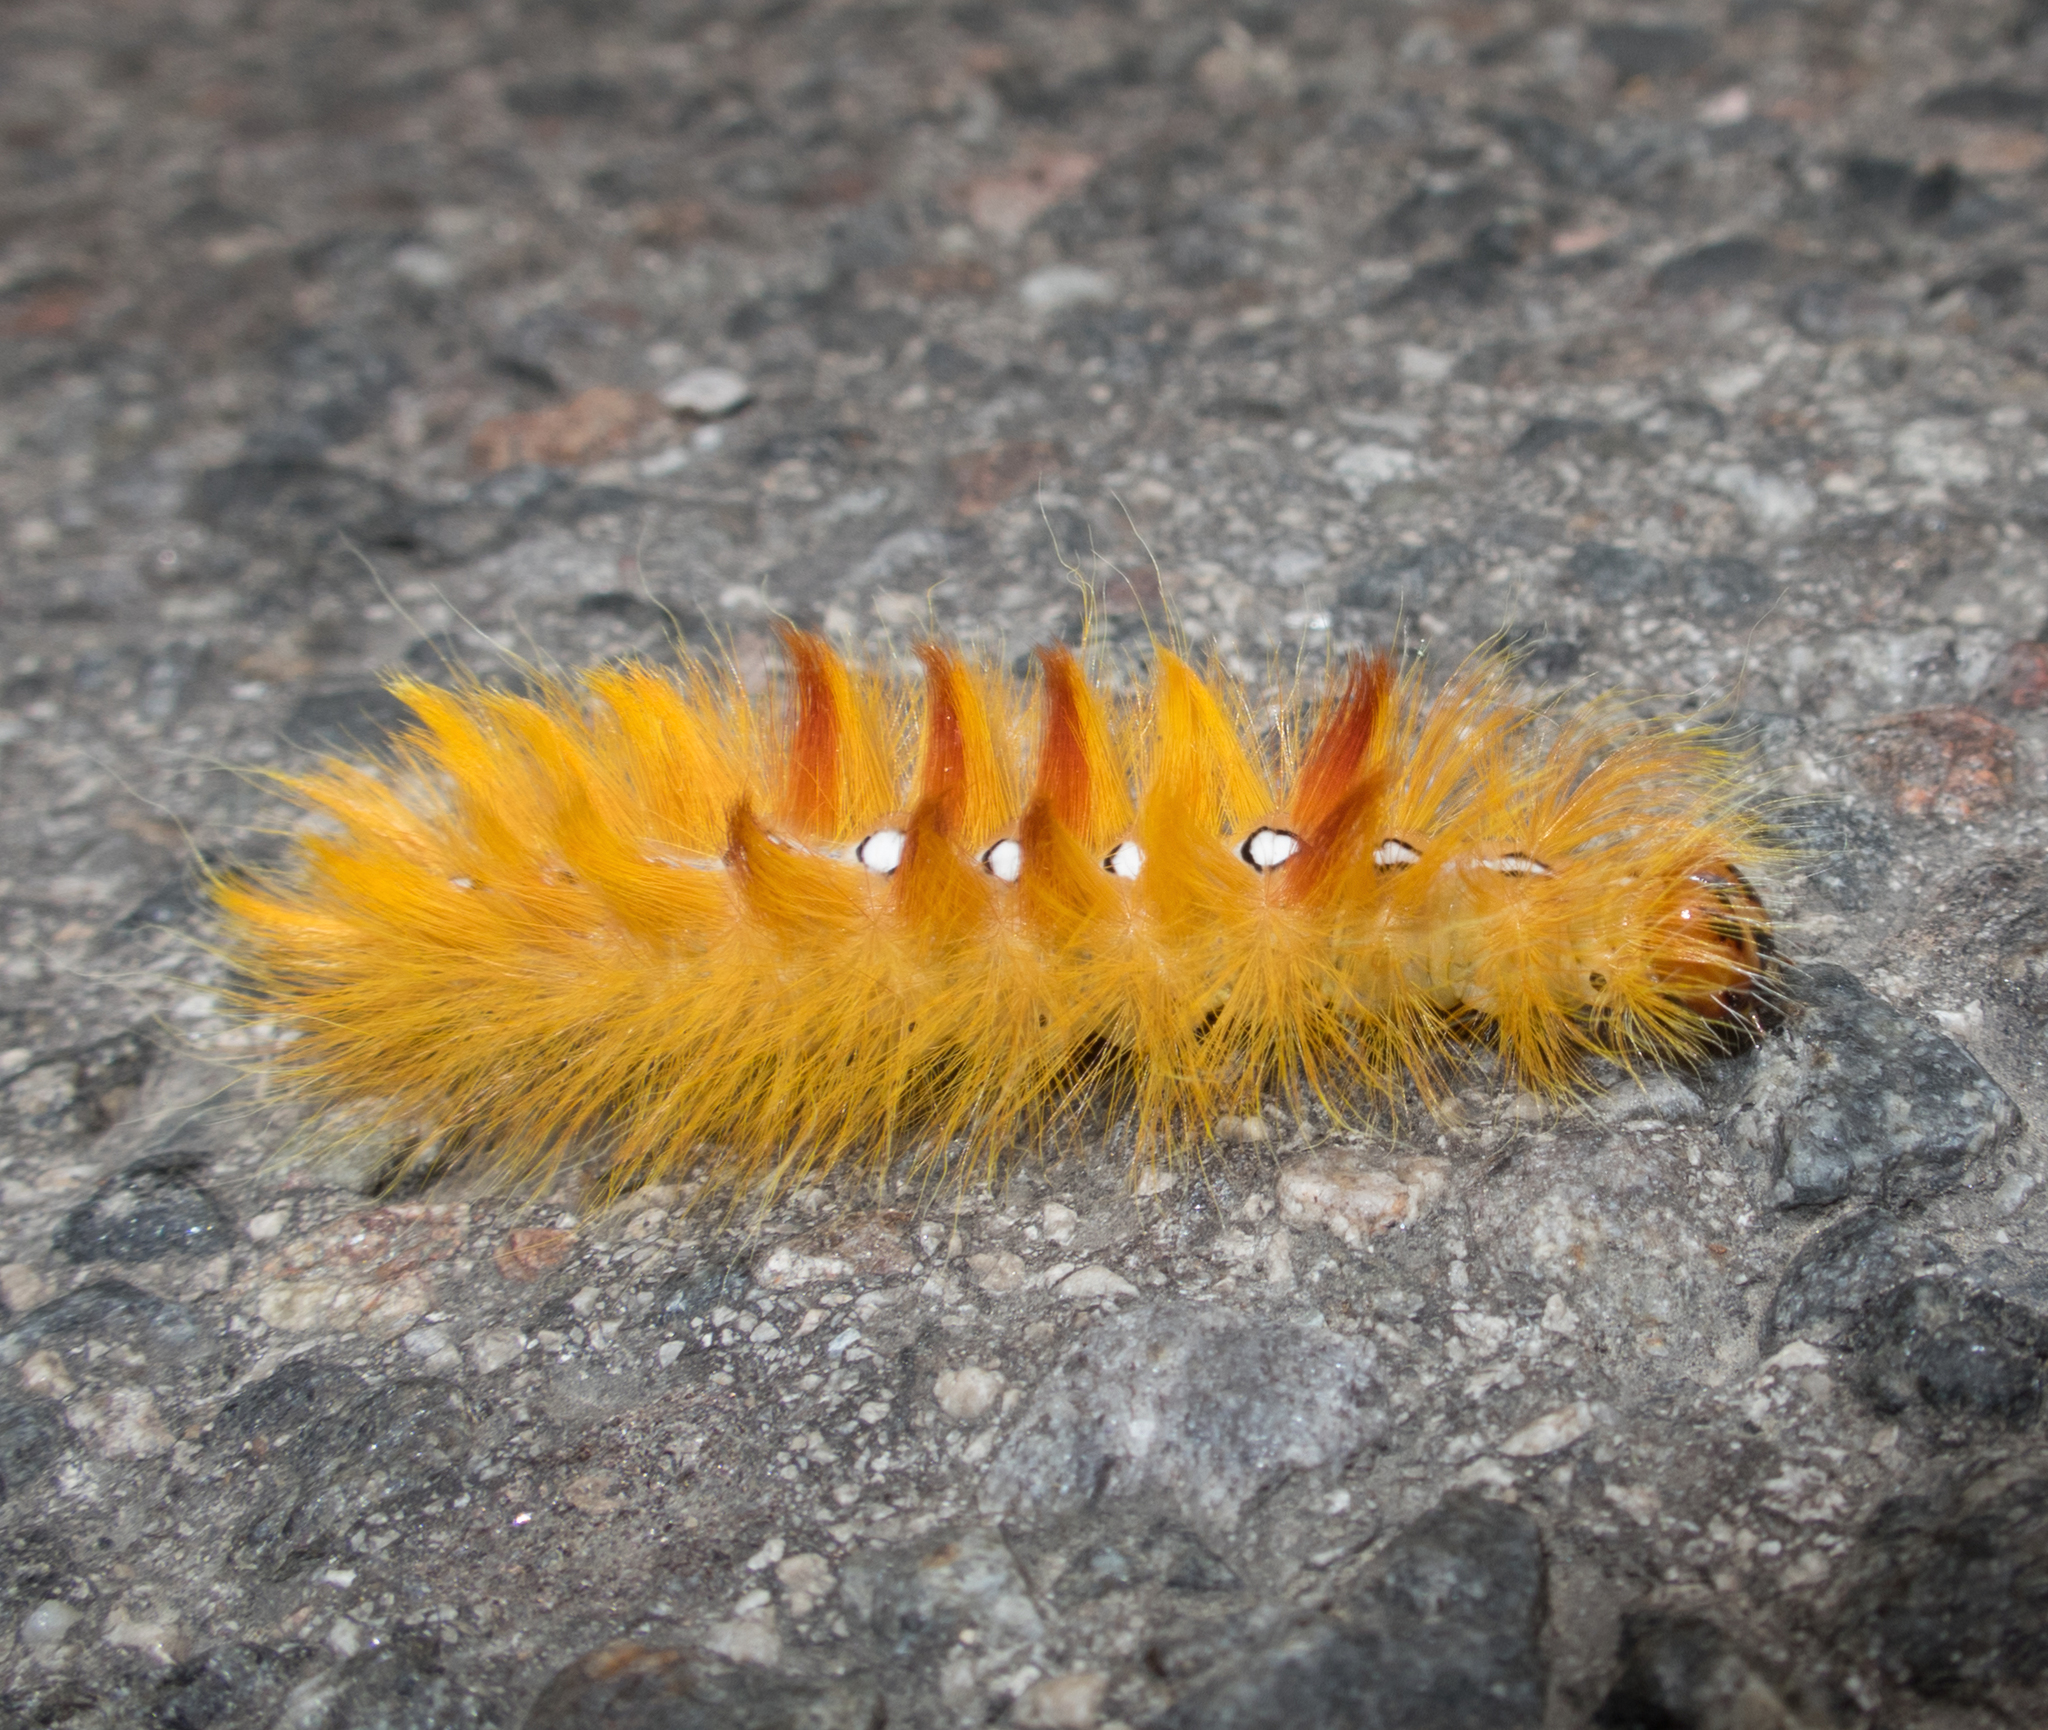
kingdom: Animalia
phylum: Arthropoda
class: Insecta
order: Lepidoptera
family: Noctuidae
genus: Acronicta
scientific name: Acronicta aceris
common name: Sycamore
